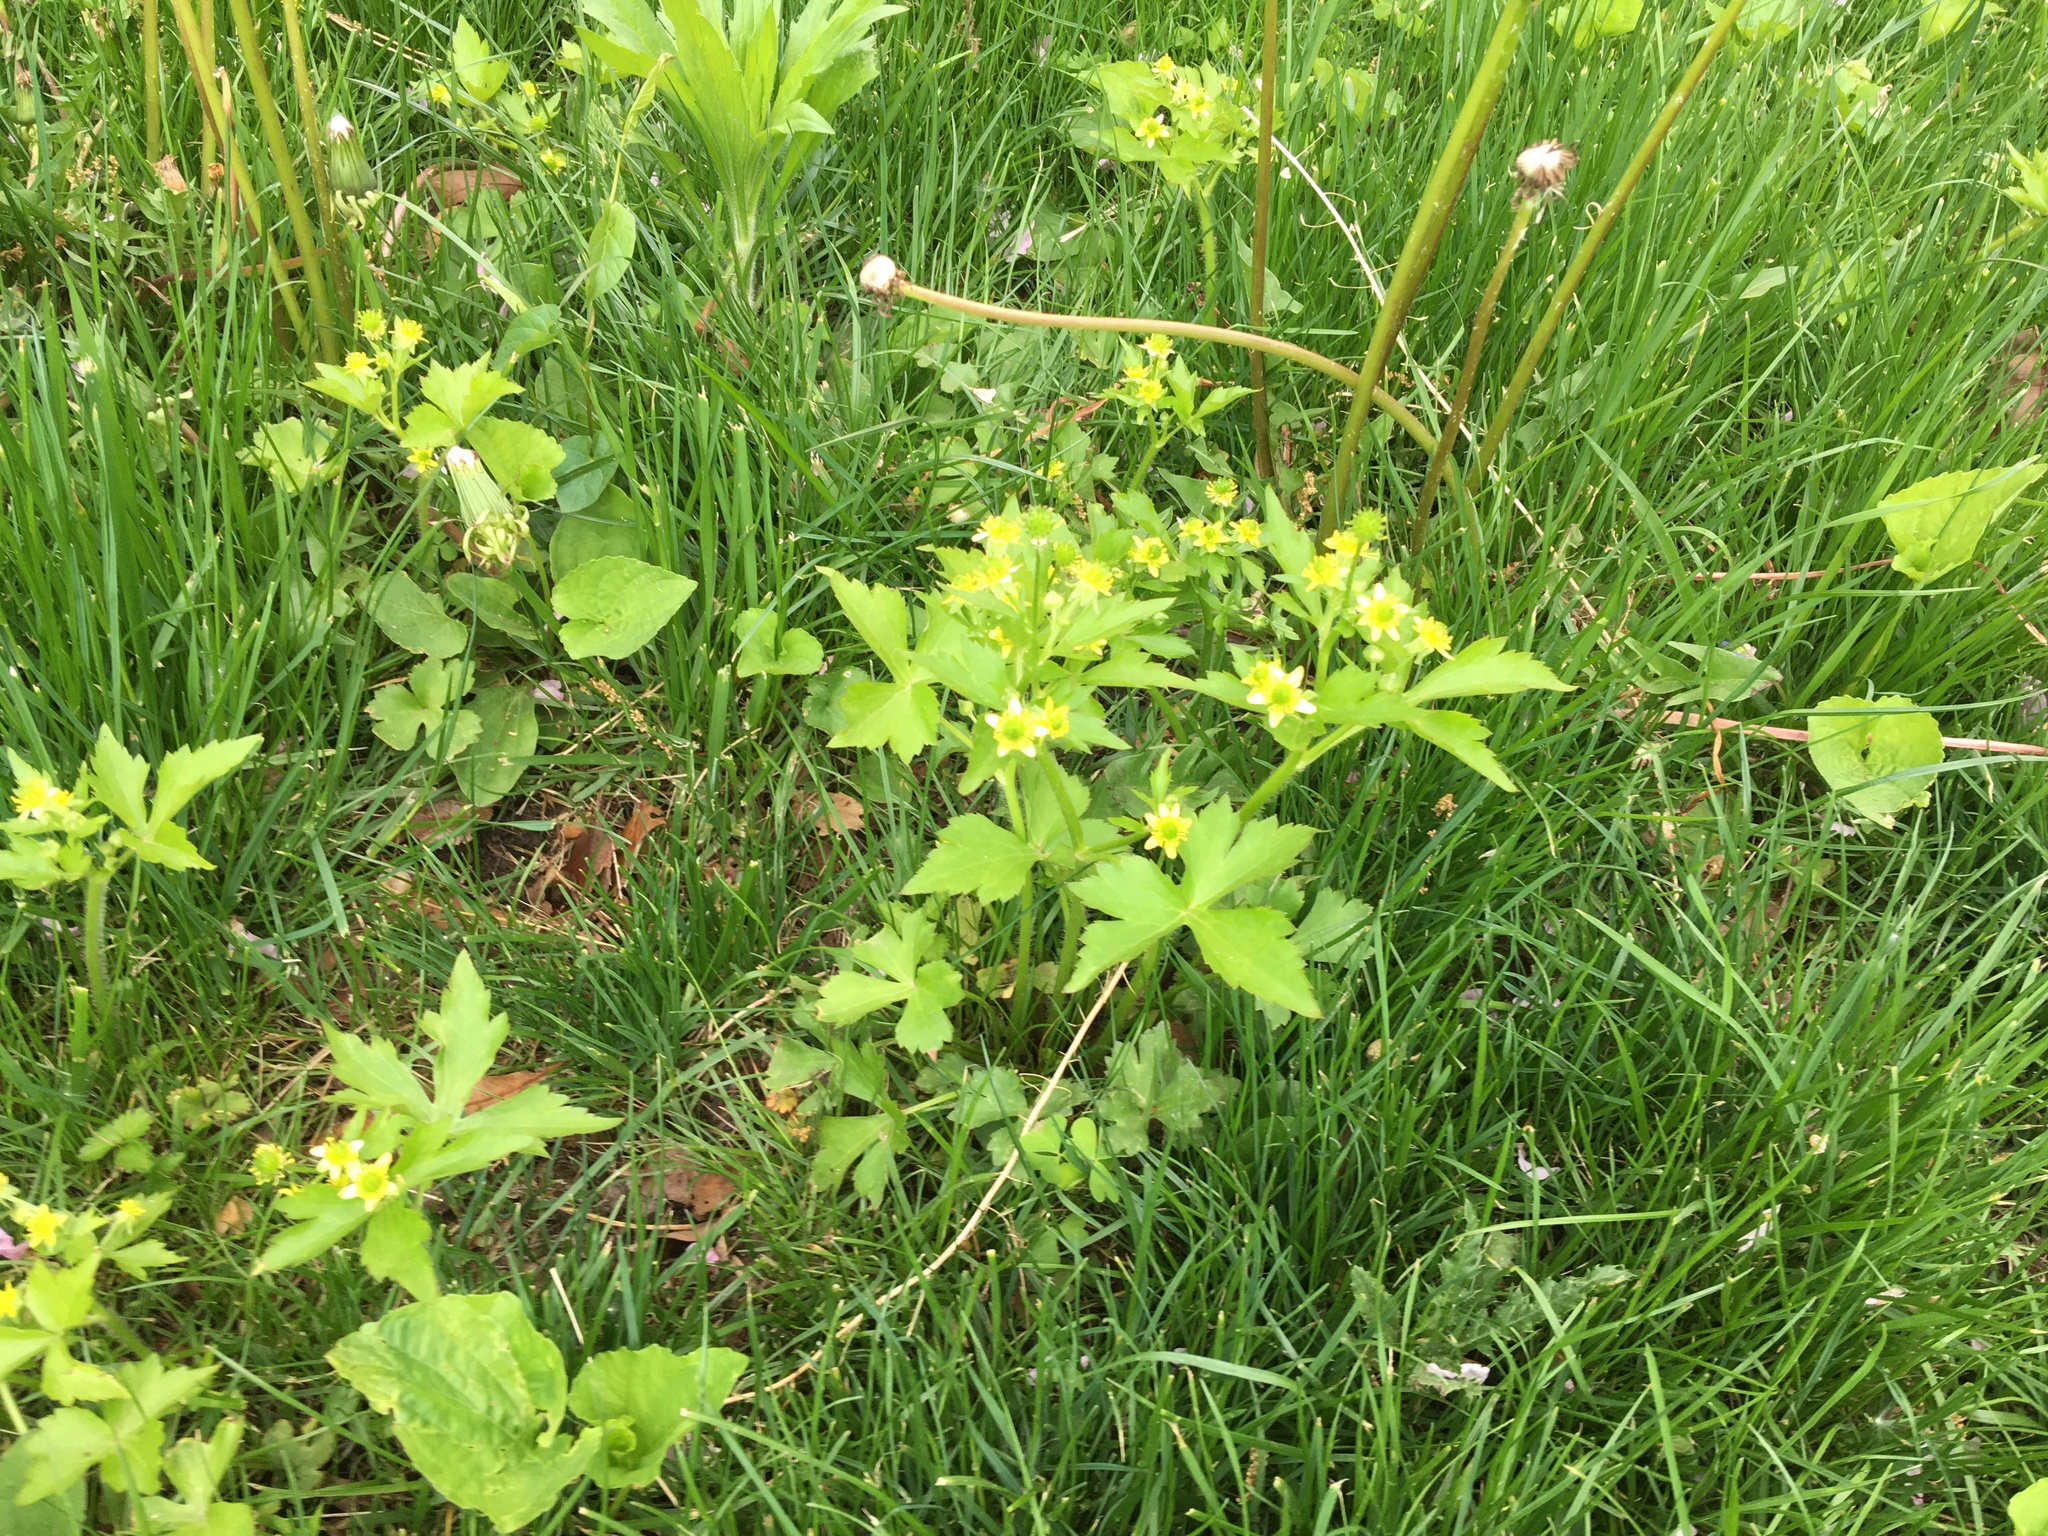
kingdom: Plantae
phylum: Tracheophyta
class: Magnoliopsida
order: Ranunculales
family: Ranunculaceae
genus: Ranunculus
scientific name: Ranunculus recurvatus
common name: Blisterwort
